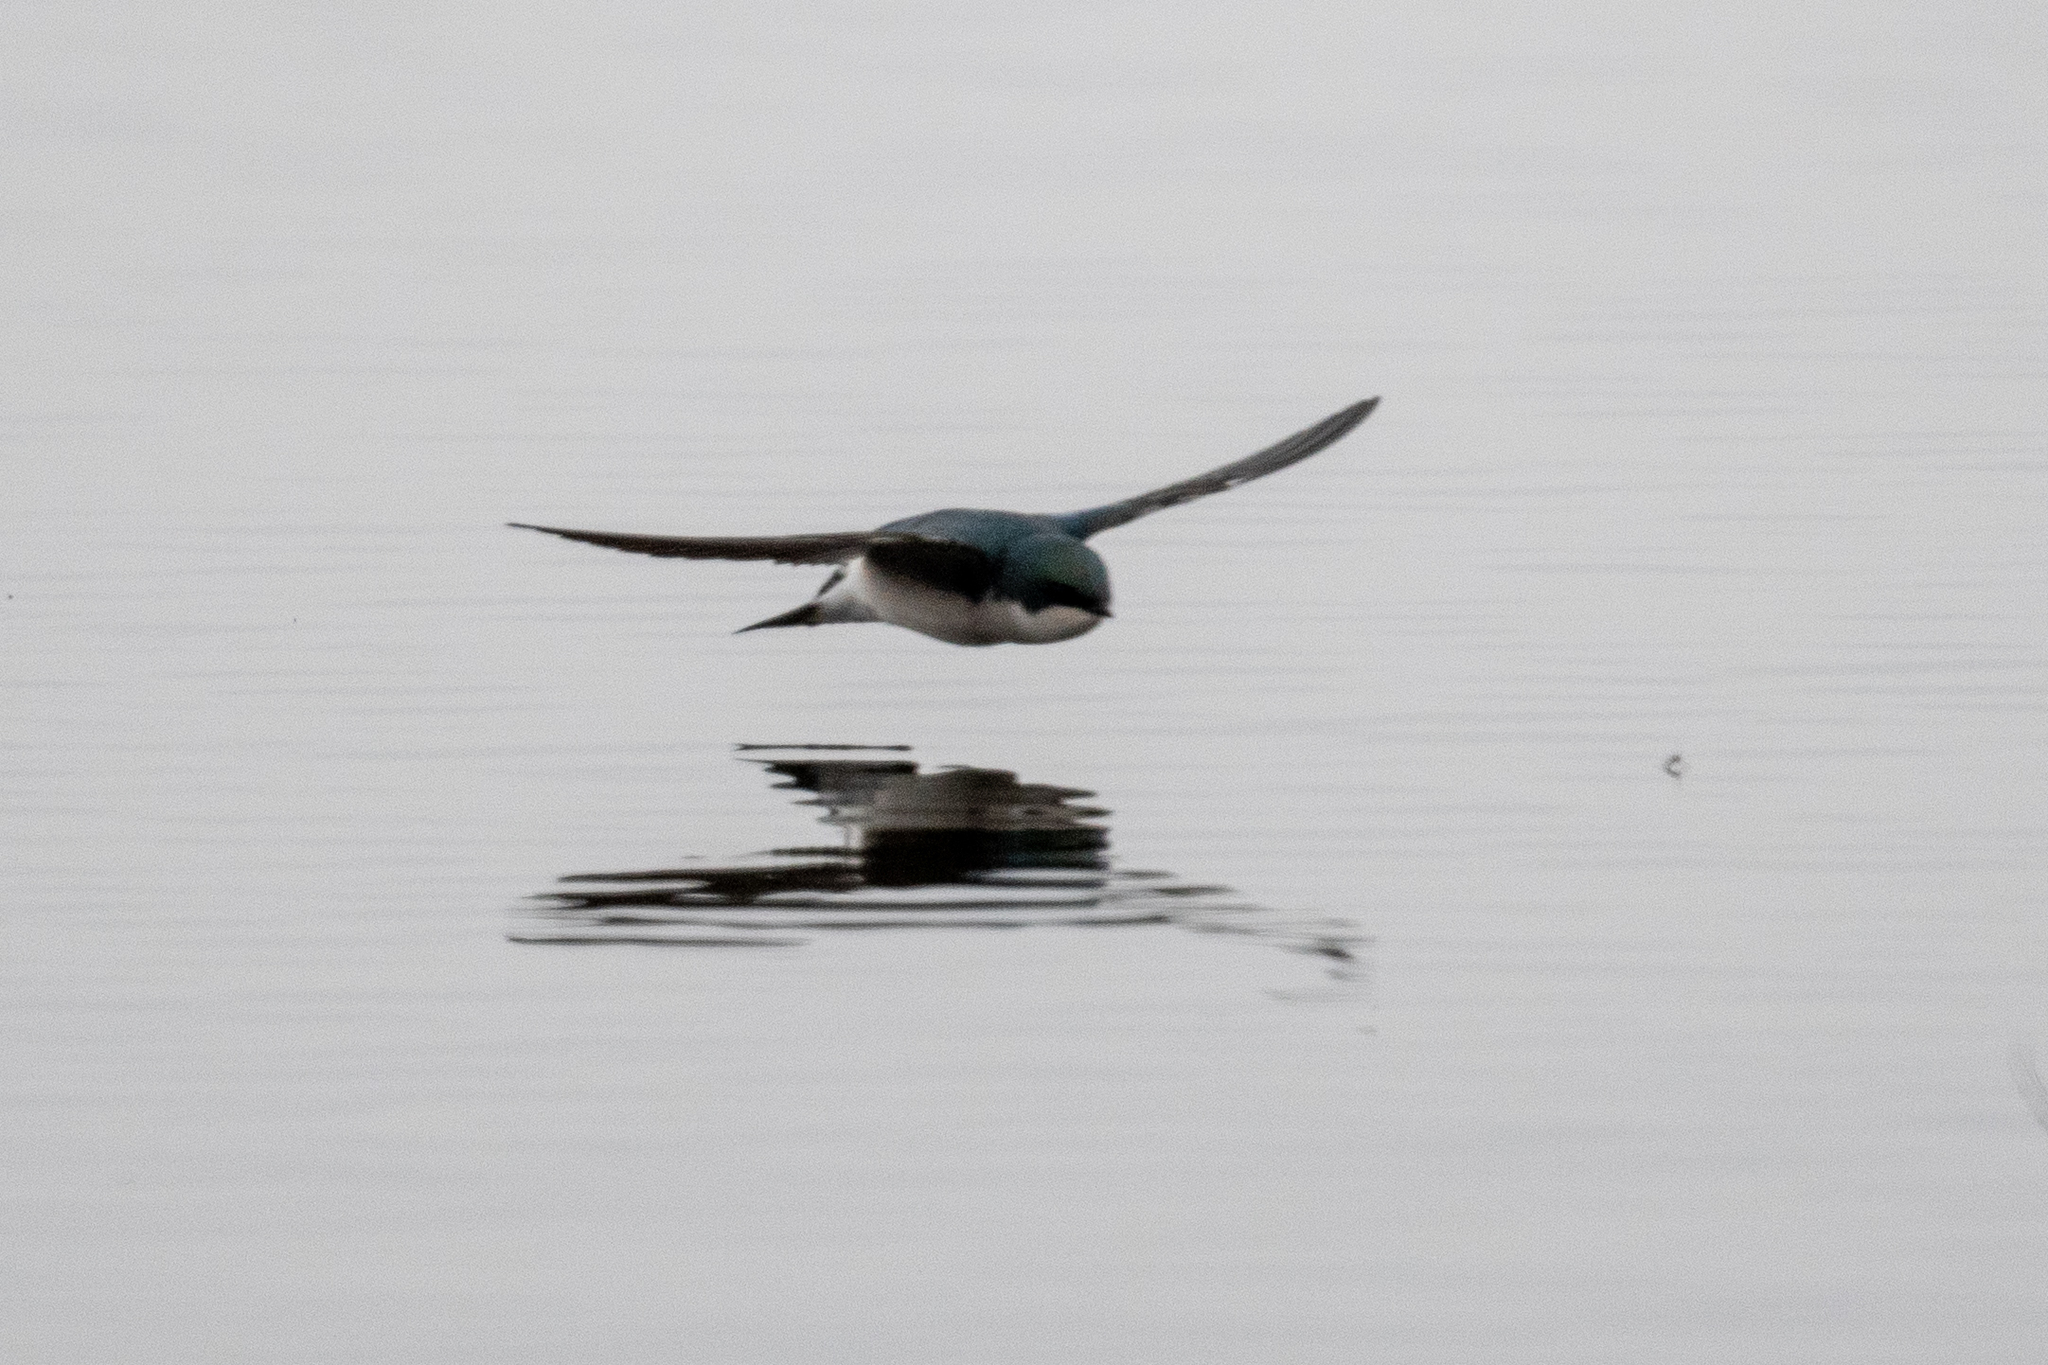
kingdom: Animalia
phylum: Chordata
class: Aves
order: Passeriformes
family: Hirundinidae
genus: Tachycineta
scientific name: Tachycineta bicolor
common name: Tree swallow
